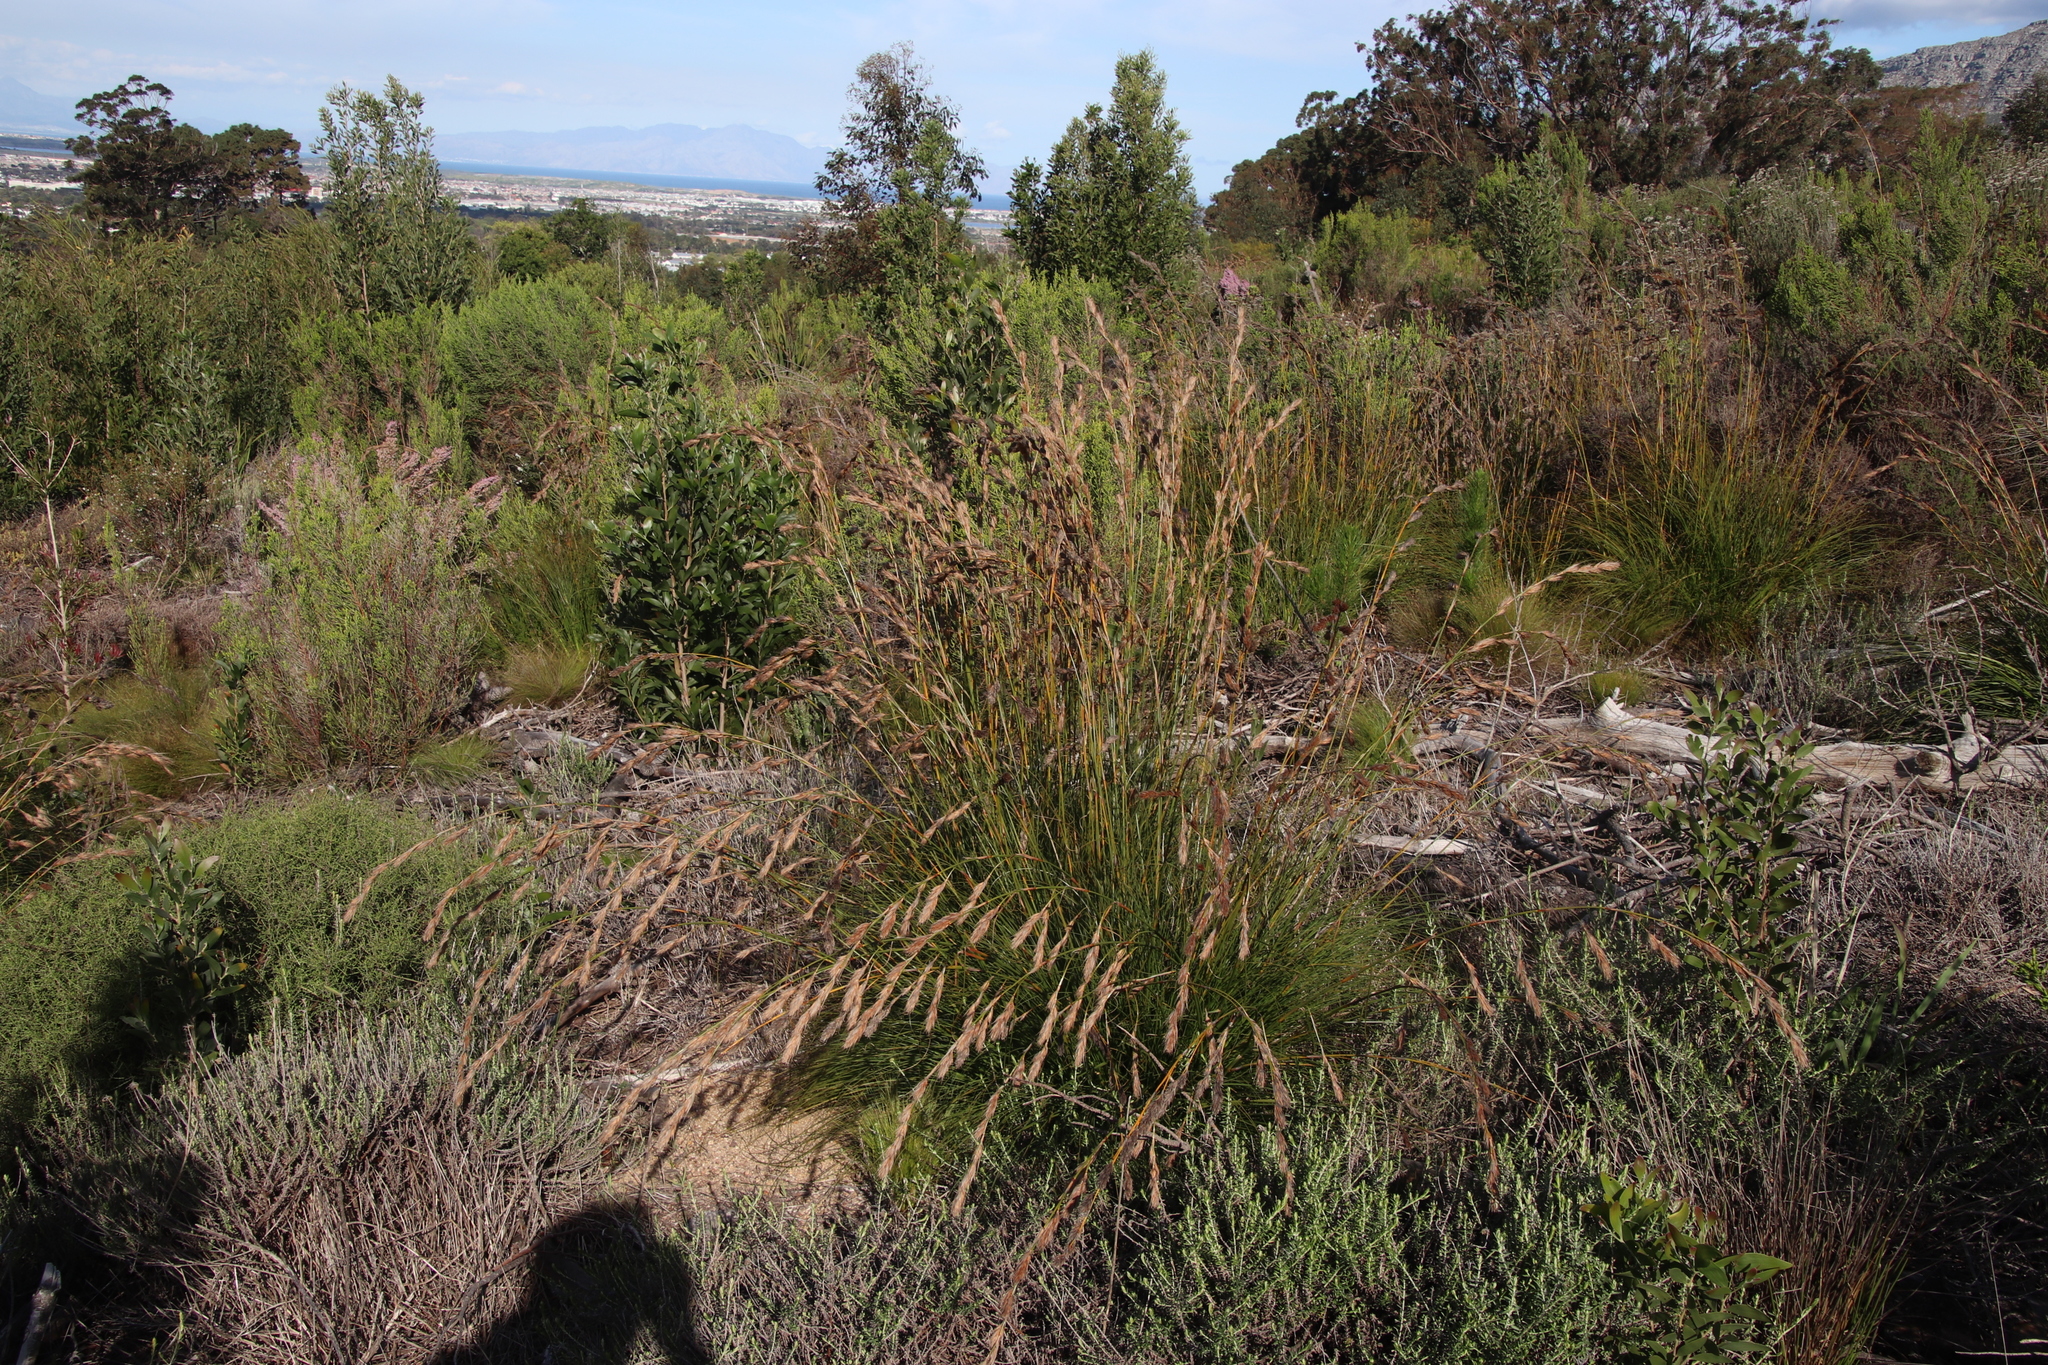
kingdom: Plantae
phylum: Tracheophyta
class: Liliopsida
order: Poales
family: Cyperaceae
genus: Tetraria
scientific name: Tetraria ustulata
